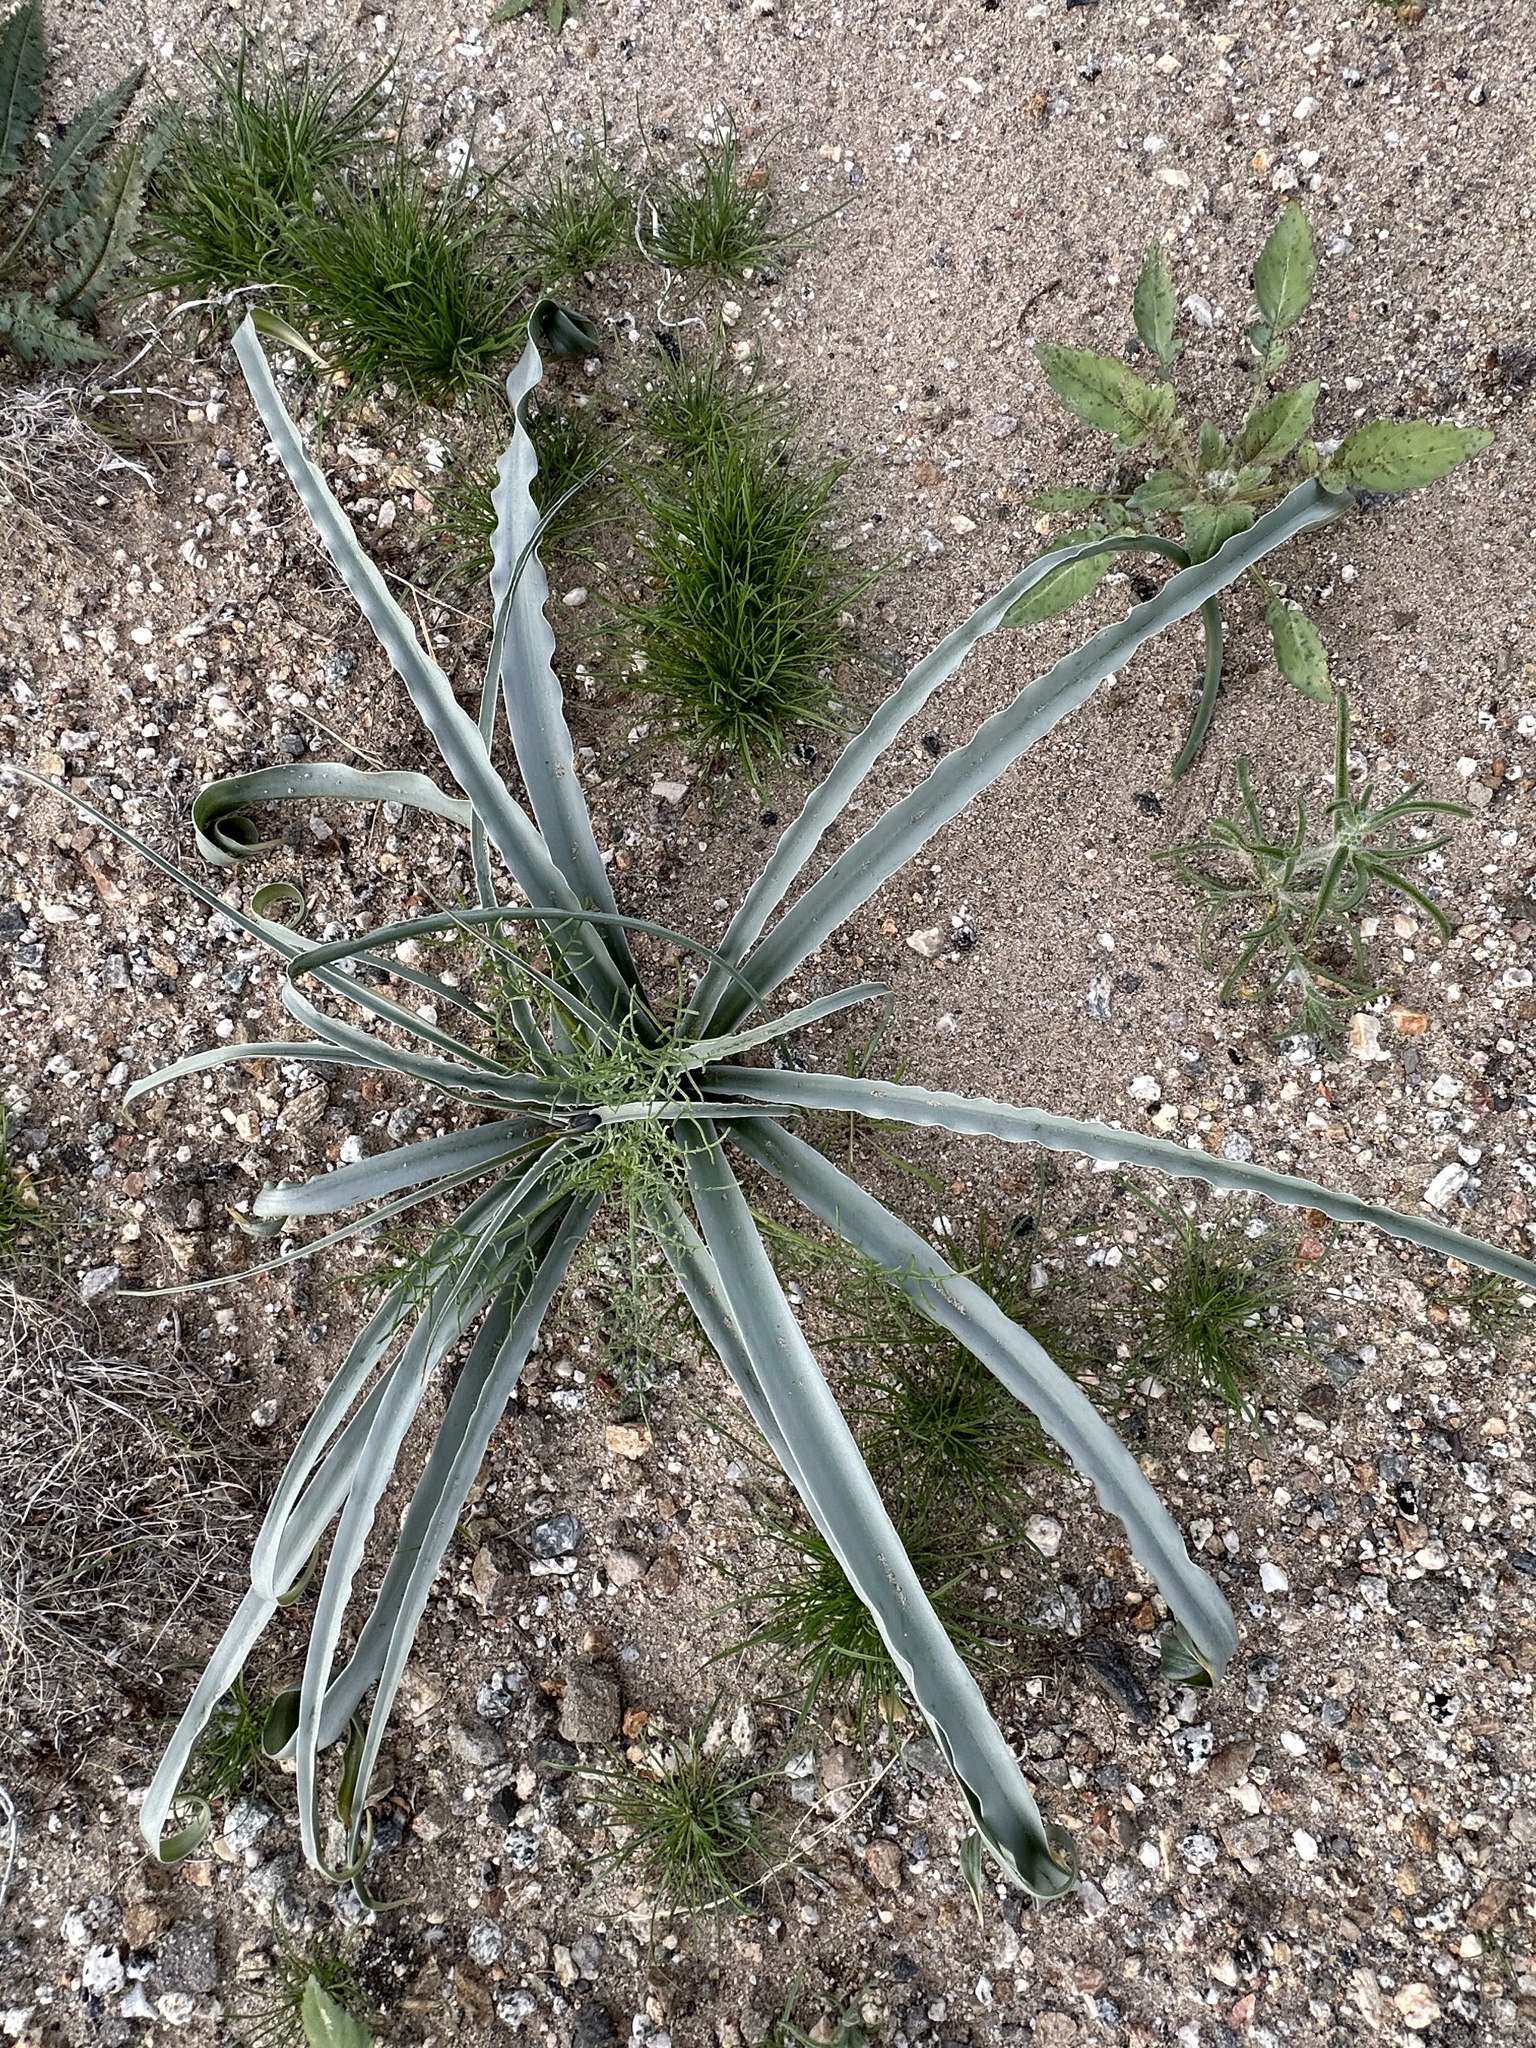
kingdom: Plantae
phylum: Tracheophyta
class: Liliopsida
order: Asparagales
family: Asparagaceae
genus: Hesperocallis
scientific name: Hesperocallis undulata
